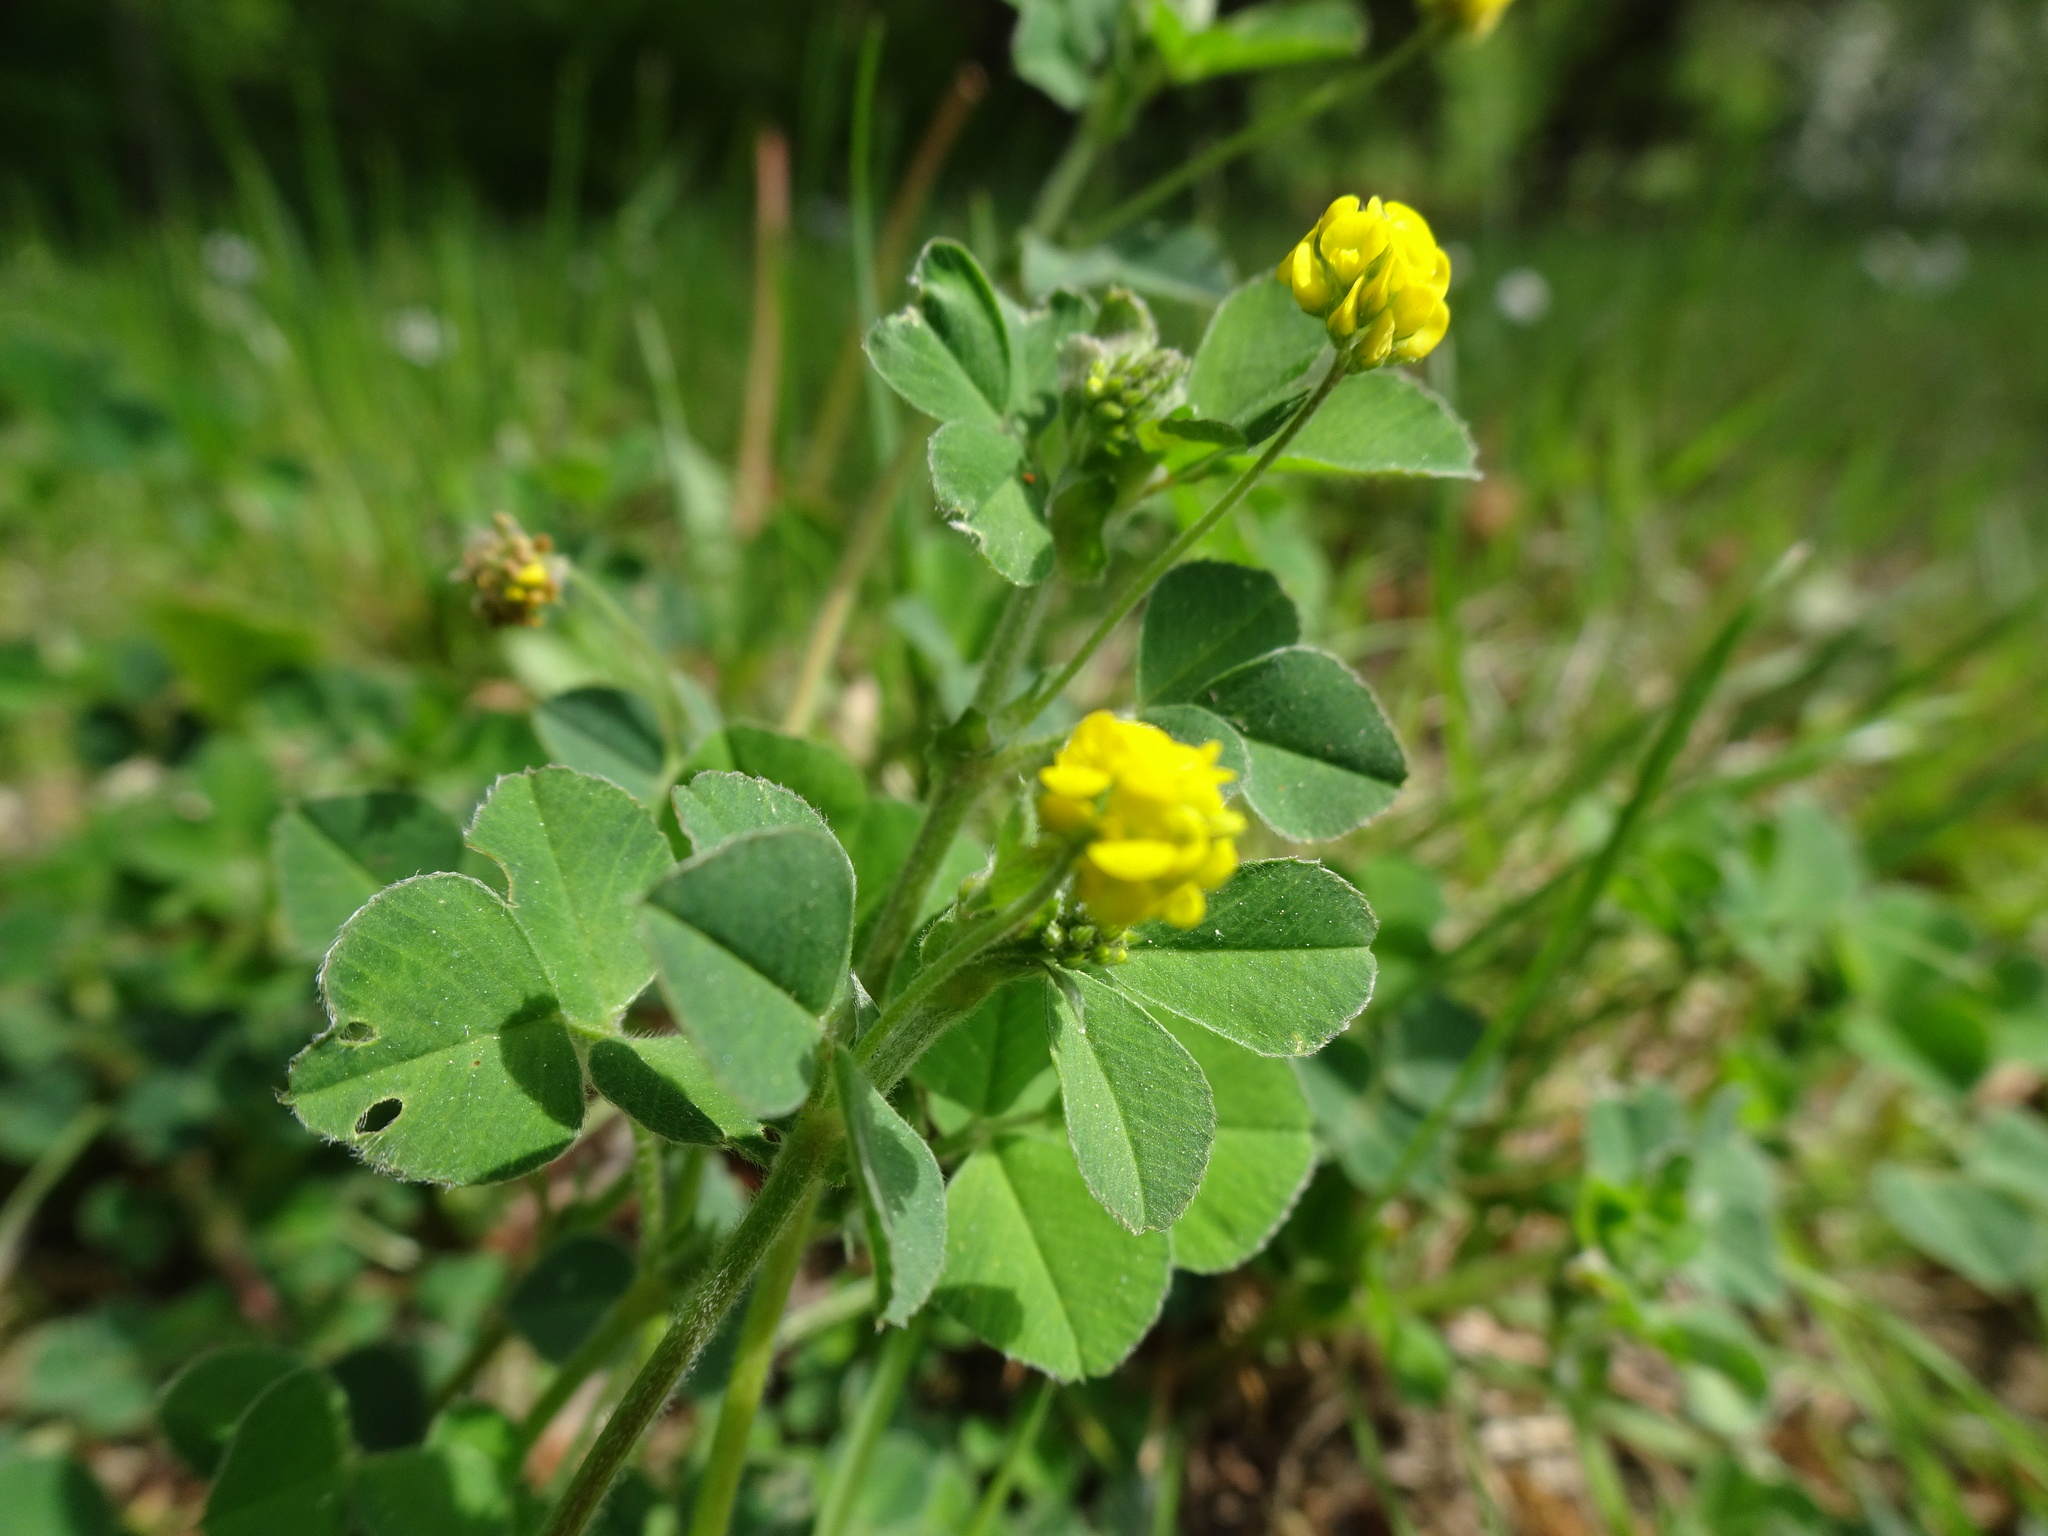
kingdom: Plantae
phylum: Tracheophyta
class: Magnoliopsida
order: Fabales
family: Fabaceae
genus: Medicago
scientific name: Medicago lupulina
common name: Black medick
